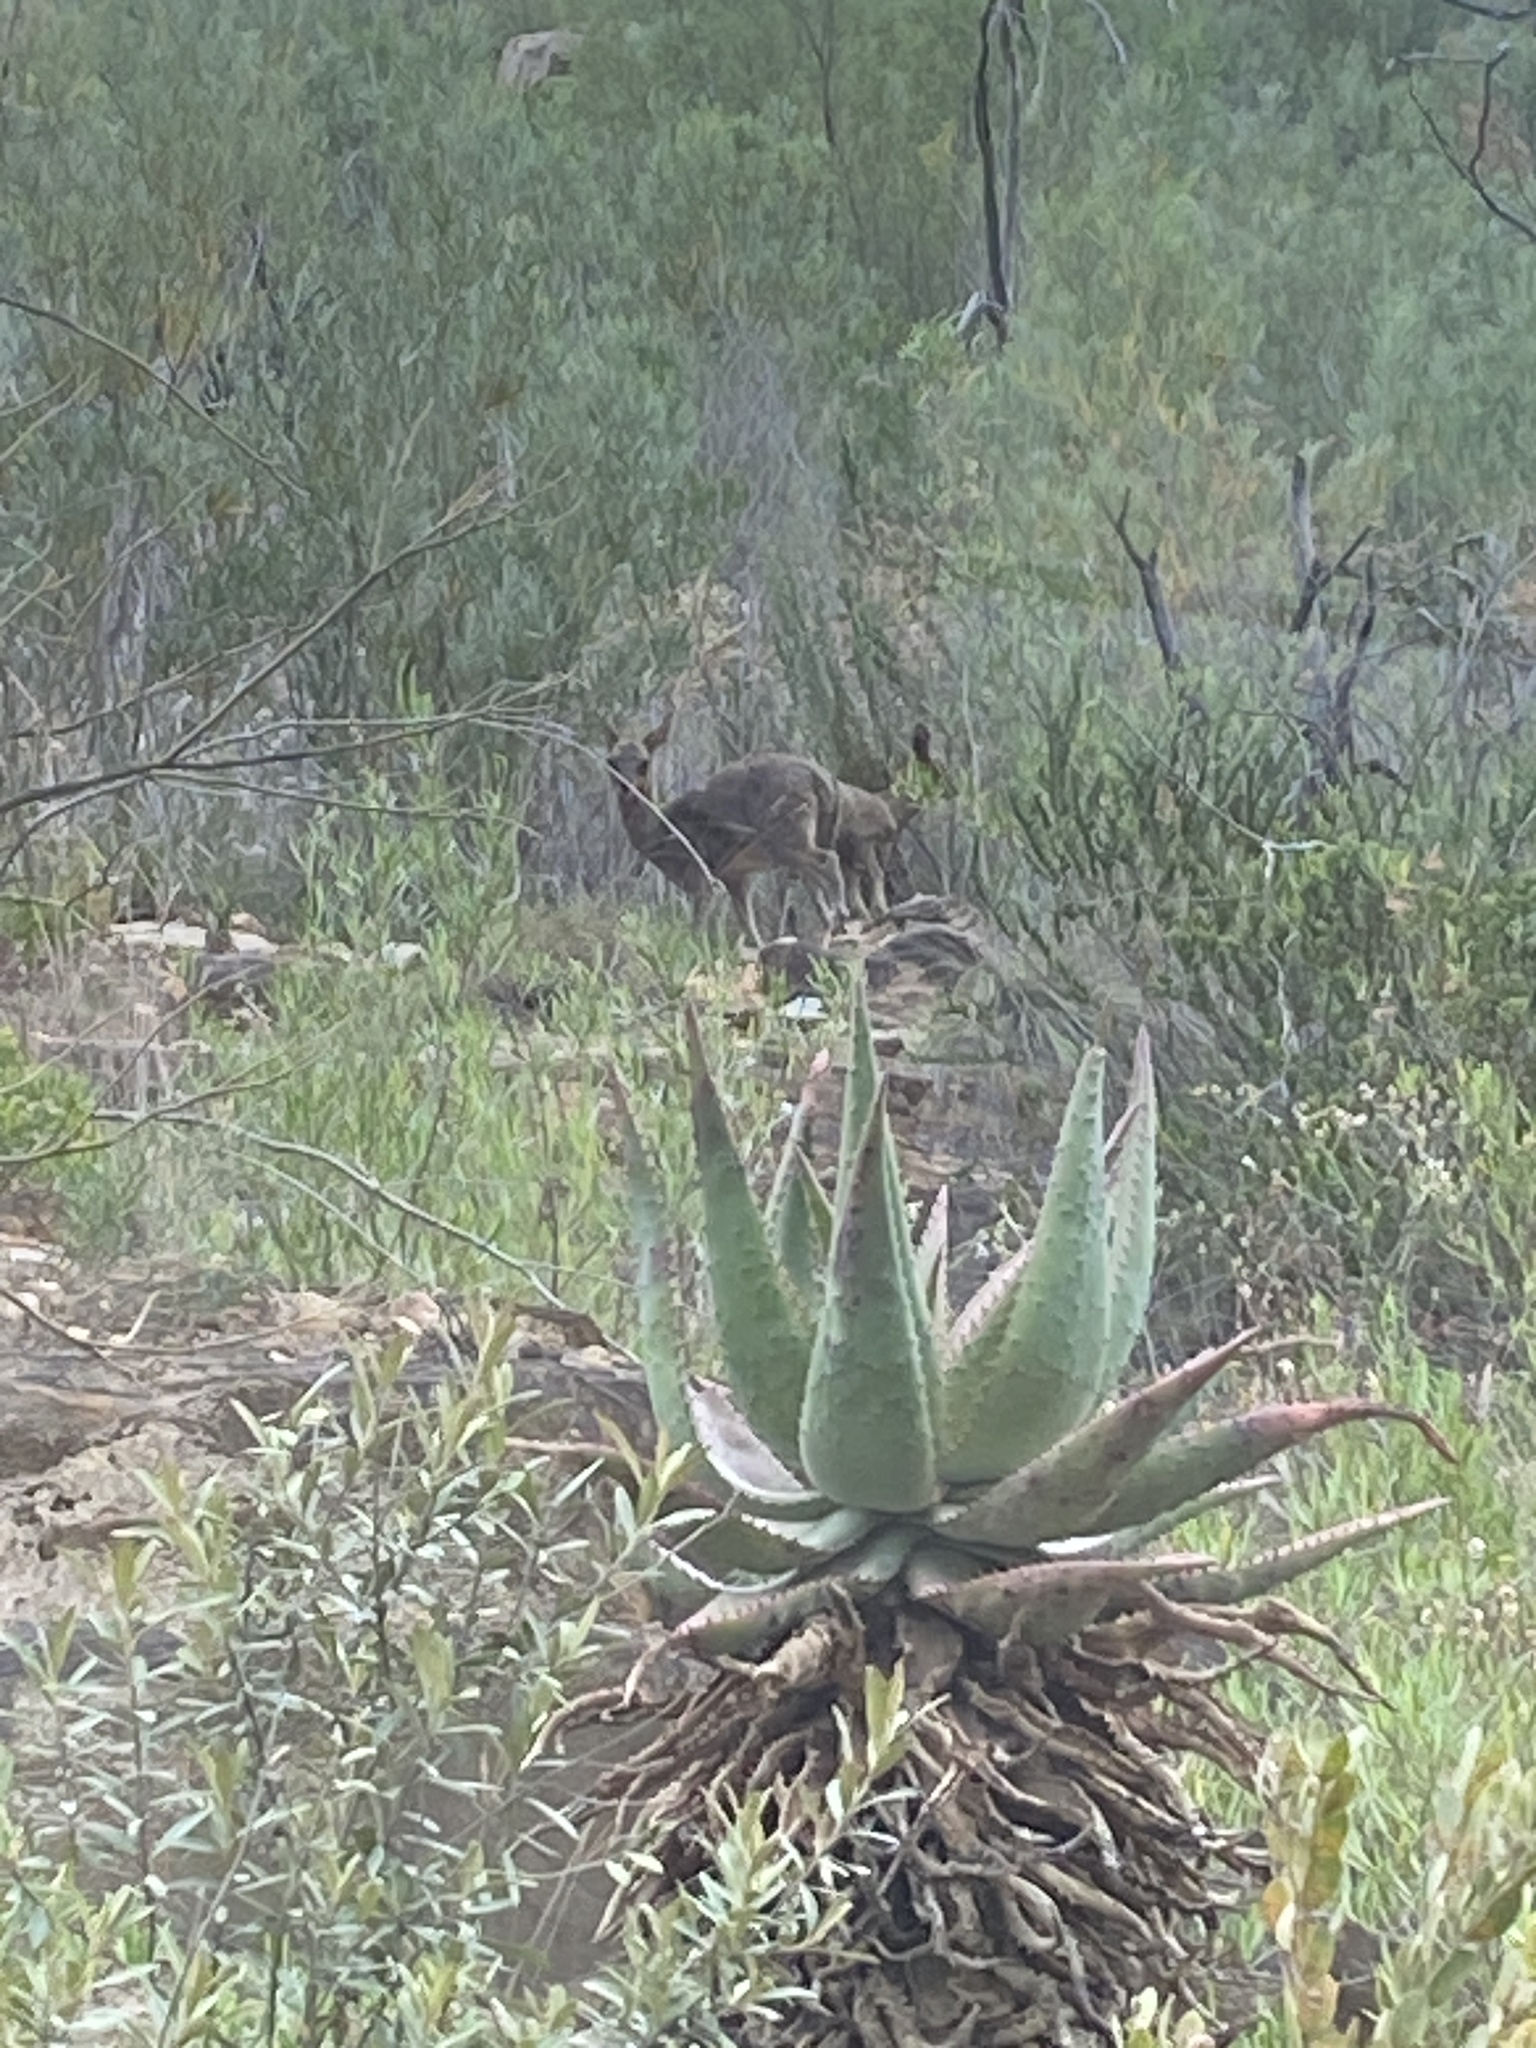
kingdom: Animalia
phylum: Chordata
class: Mammalia
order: Artiodactyla
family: Bovidae
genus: Oreotragus
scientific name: Oreotragus oreotragus
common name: Klipspringer
